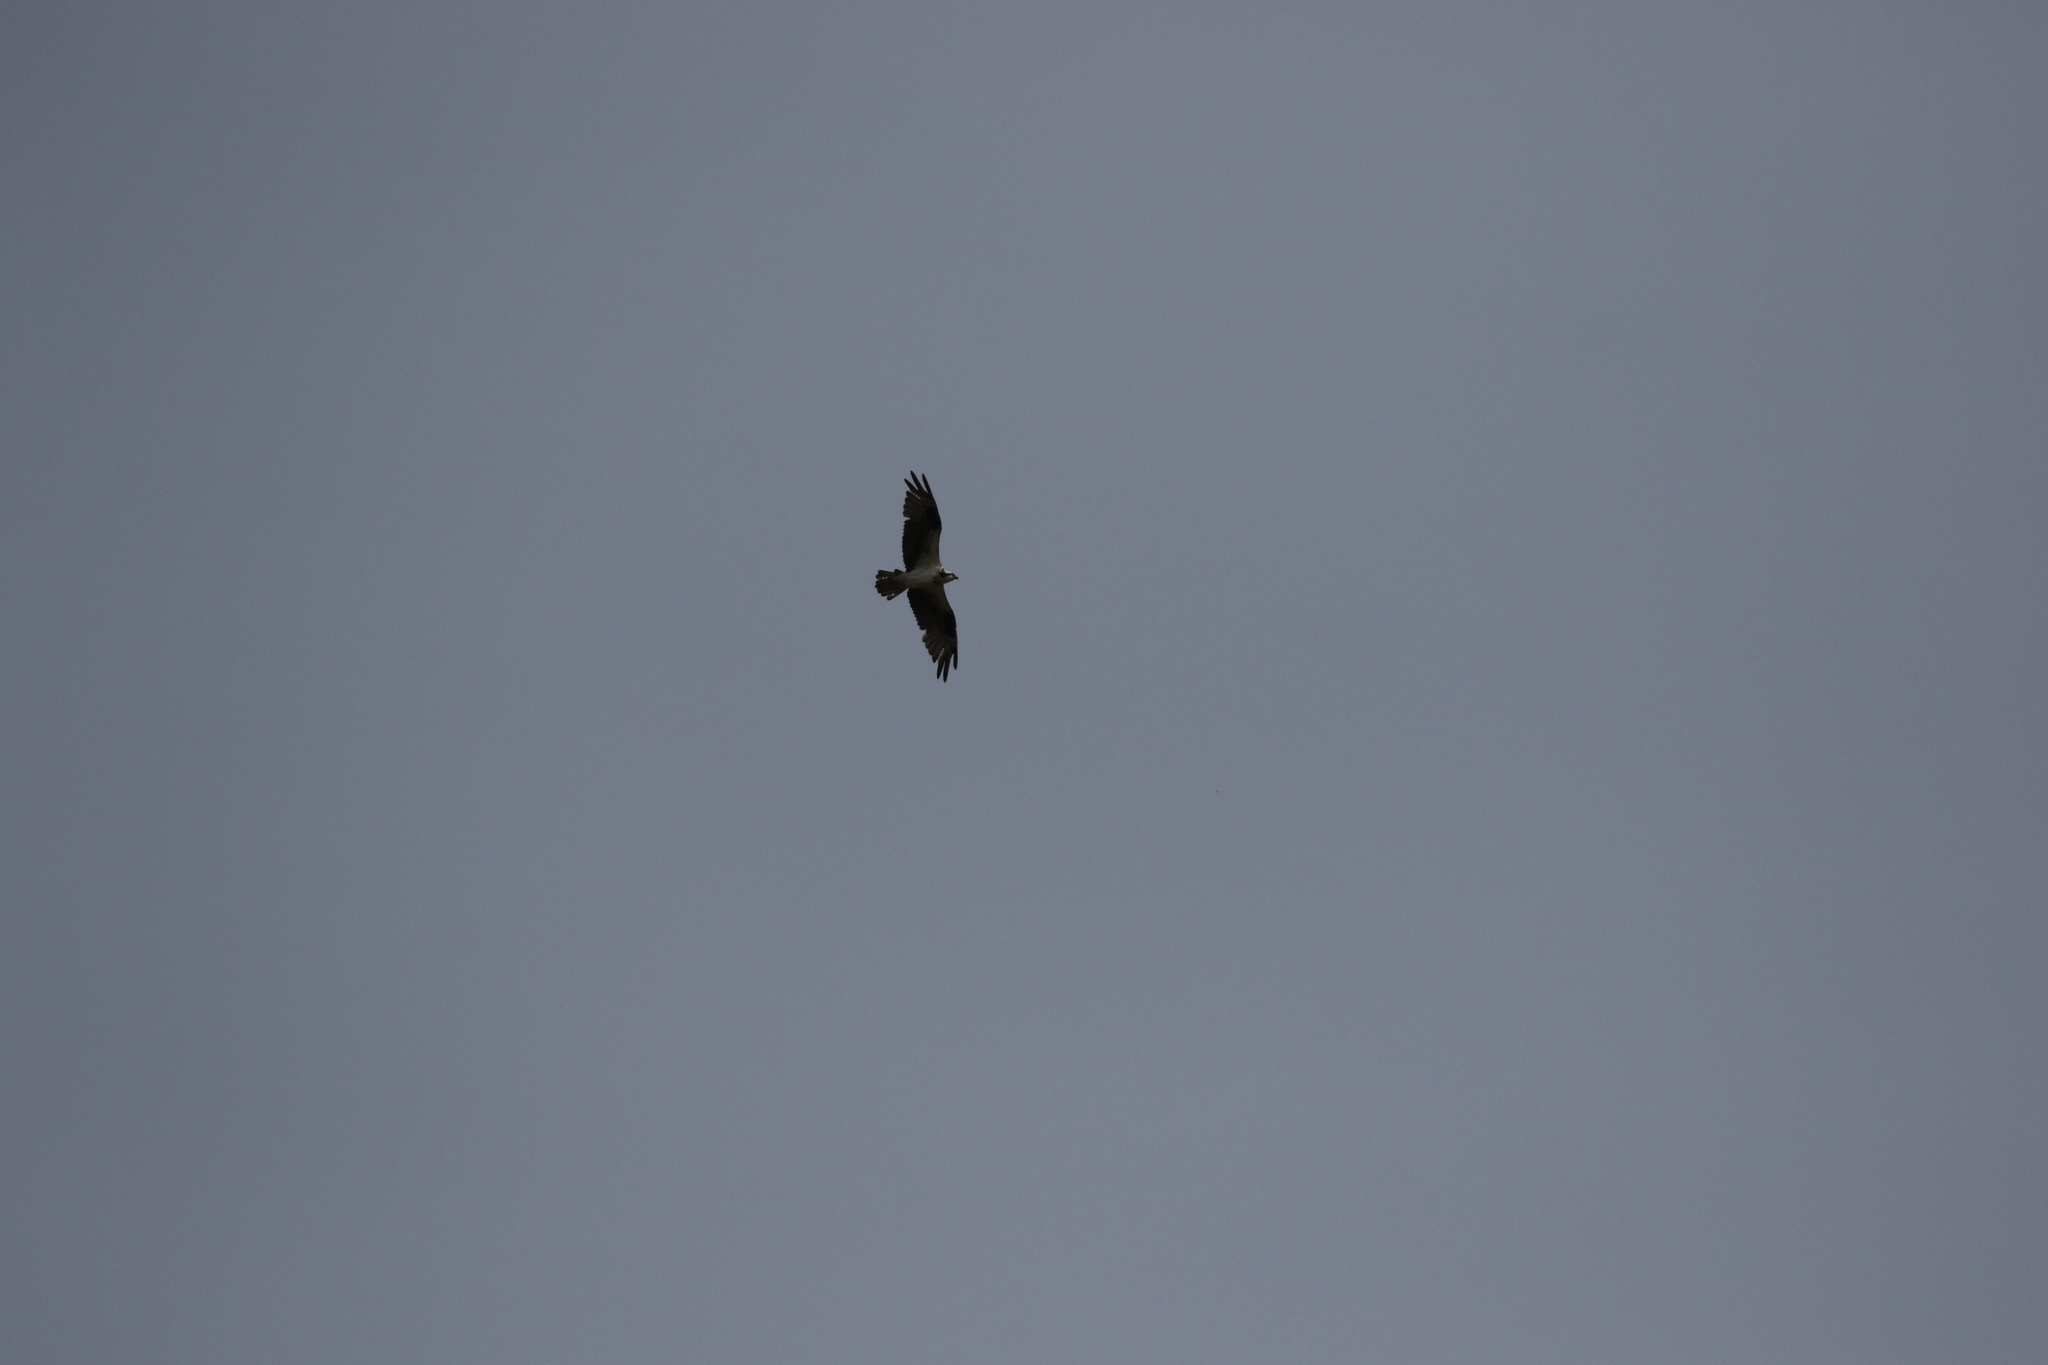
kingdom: Animalia
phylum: Chordata
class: Aves
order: Accipitriformes
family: Pandionidae
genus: Pandion
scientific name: Pandion haliaetus
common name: Osprey
